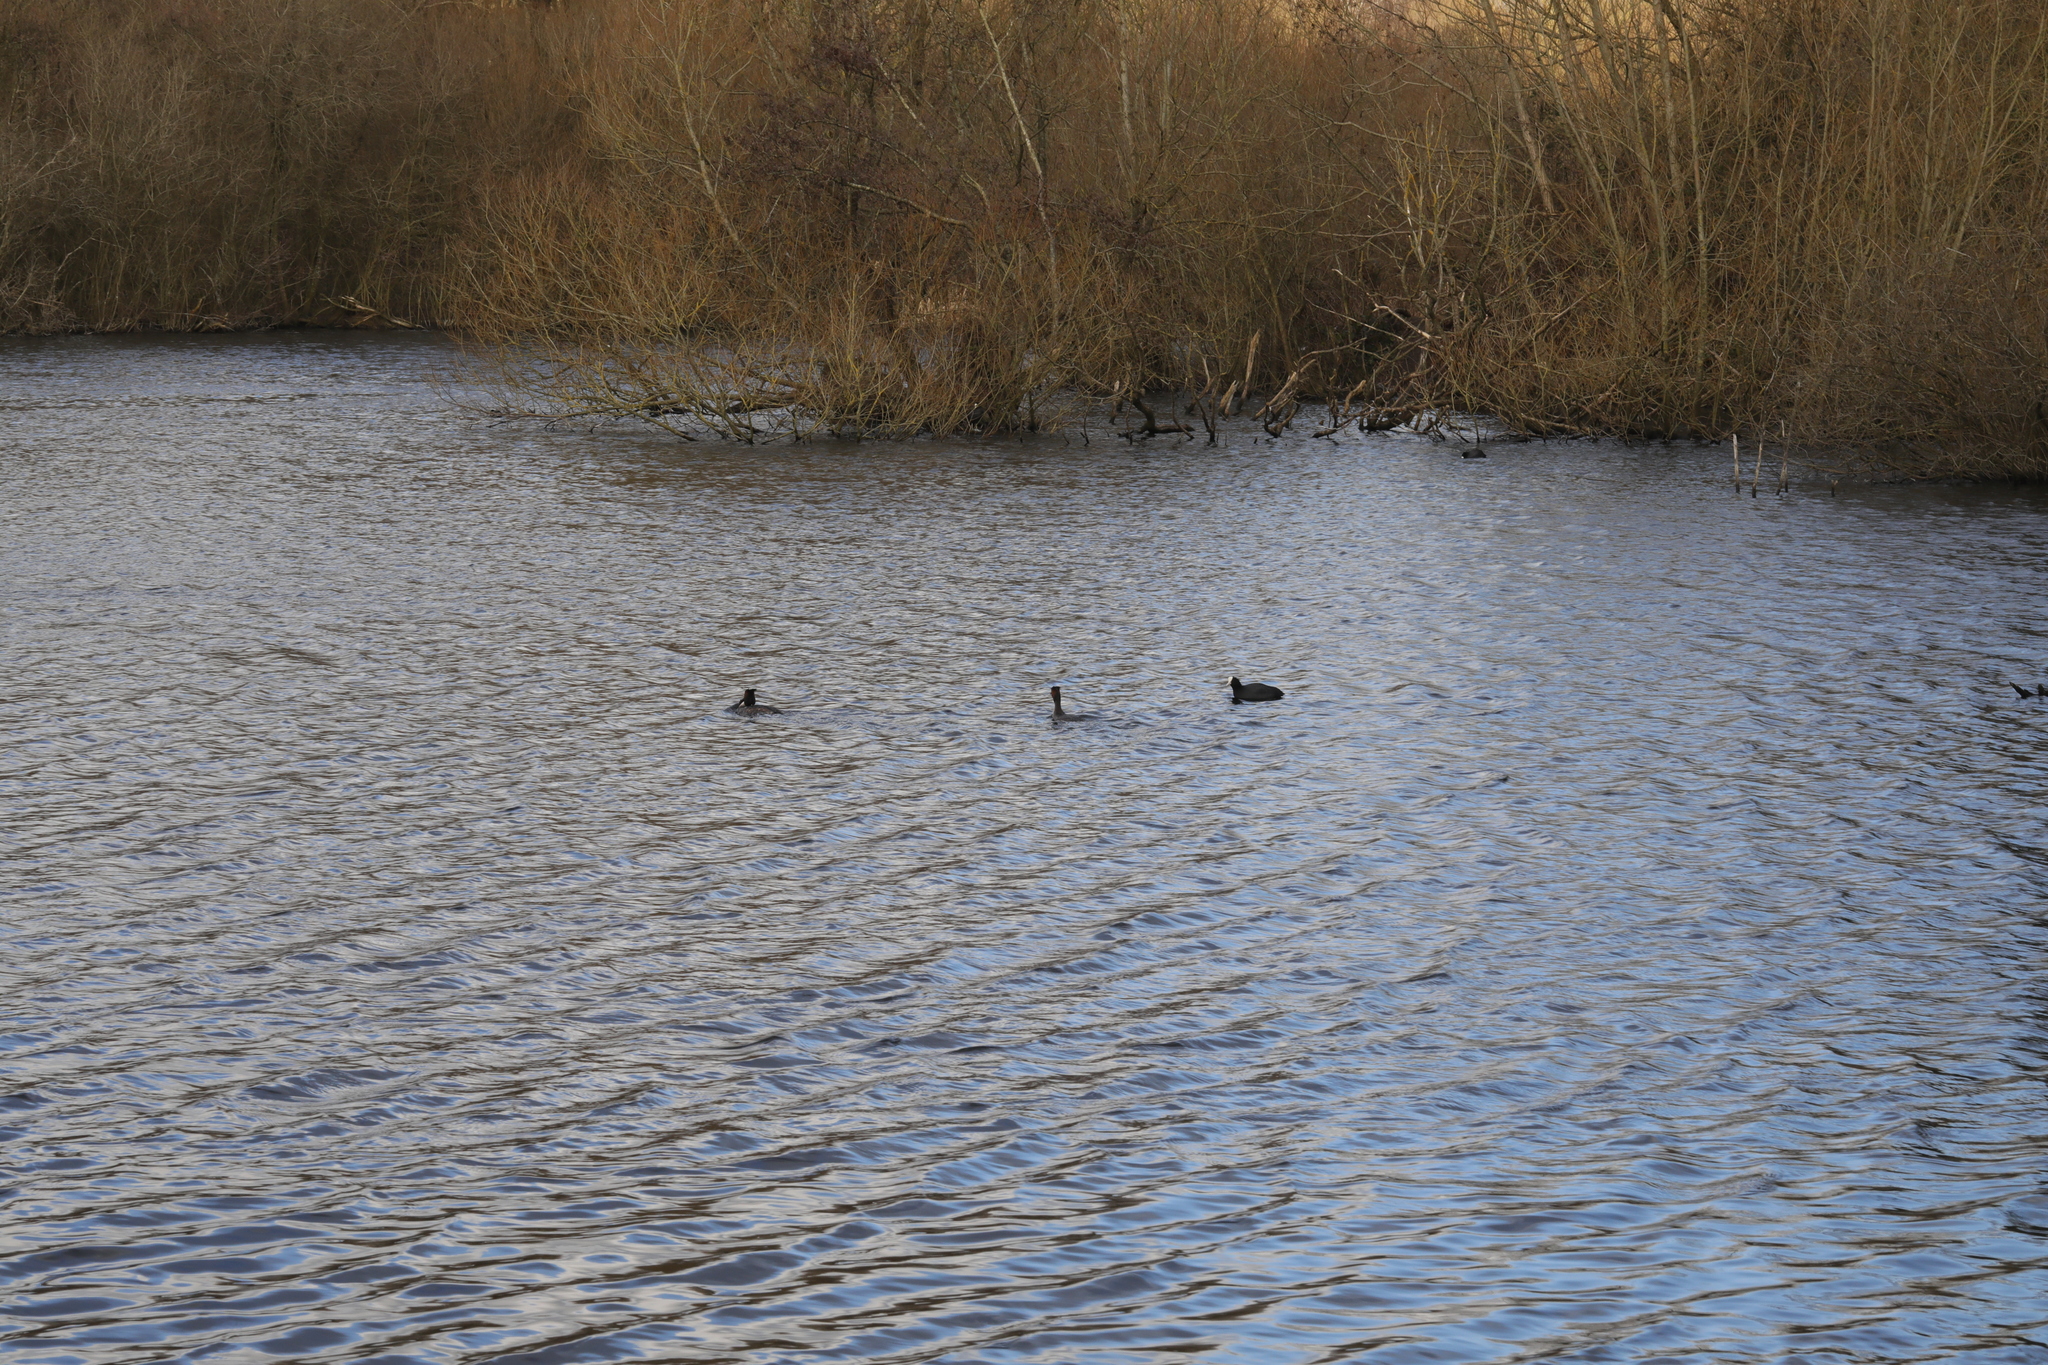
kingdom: Animalia
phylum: Chordata
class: Aves
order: Gruiformes
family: Rallidae
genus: Fulica
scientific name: Fulica atra
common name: Eurasian coot
